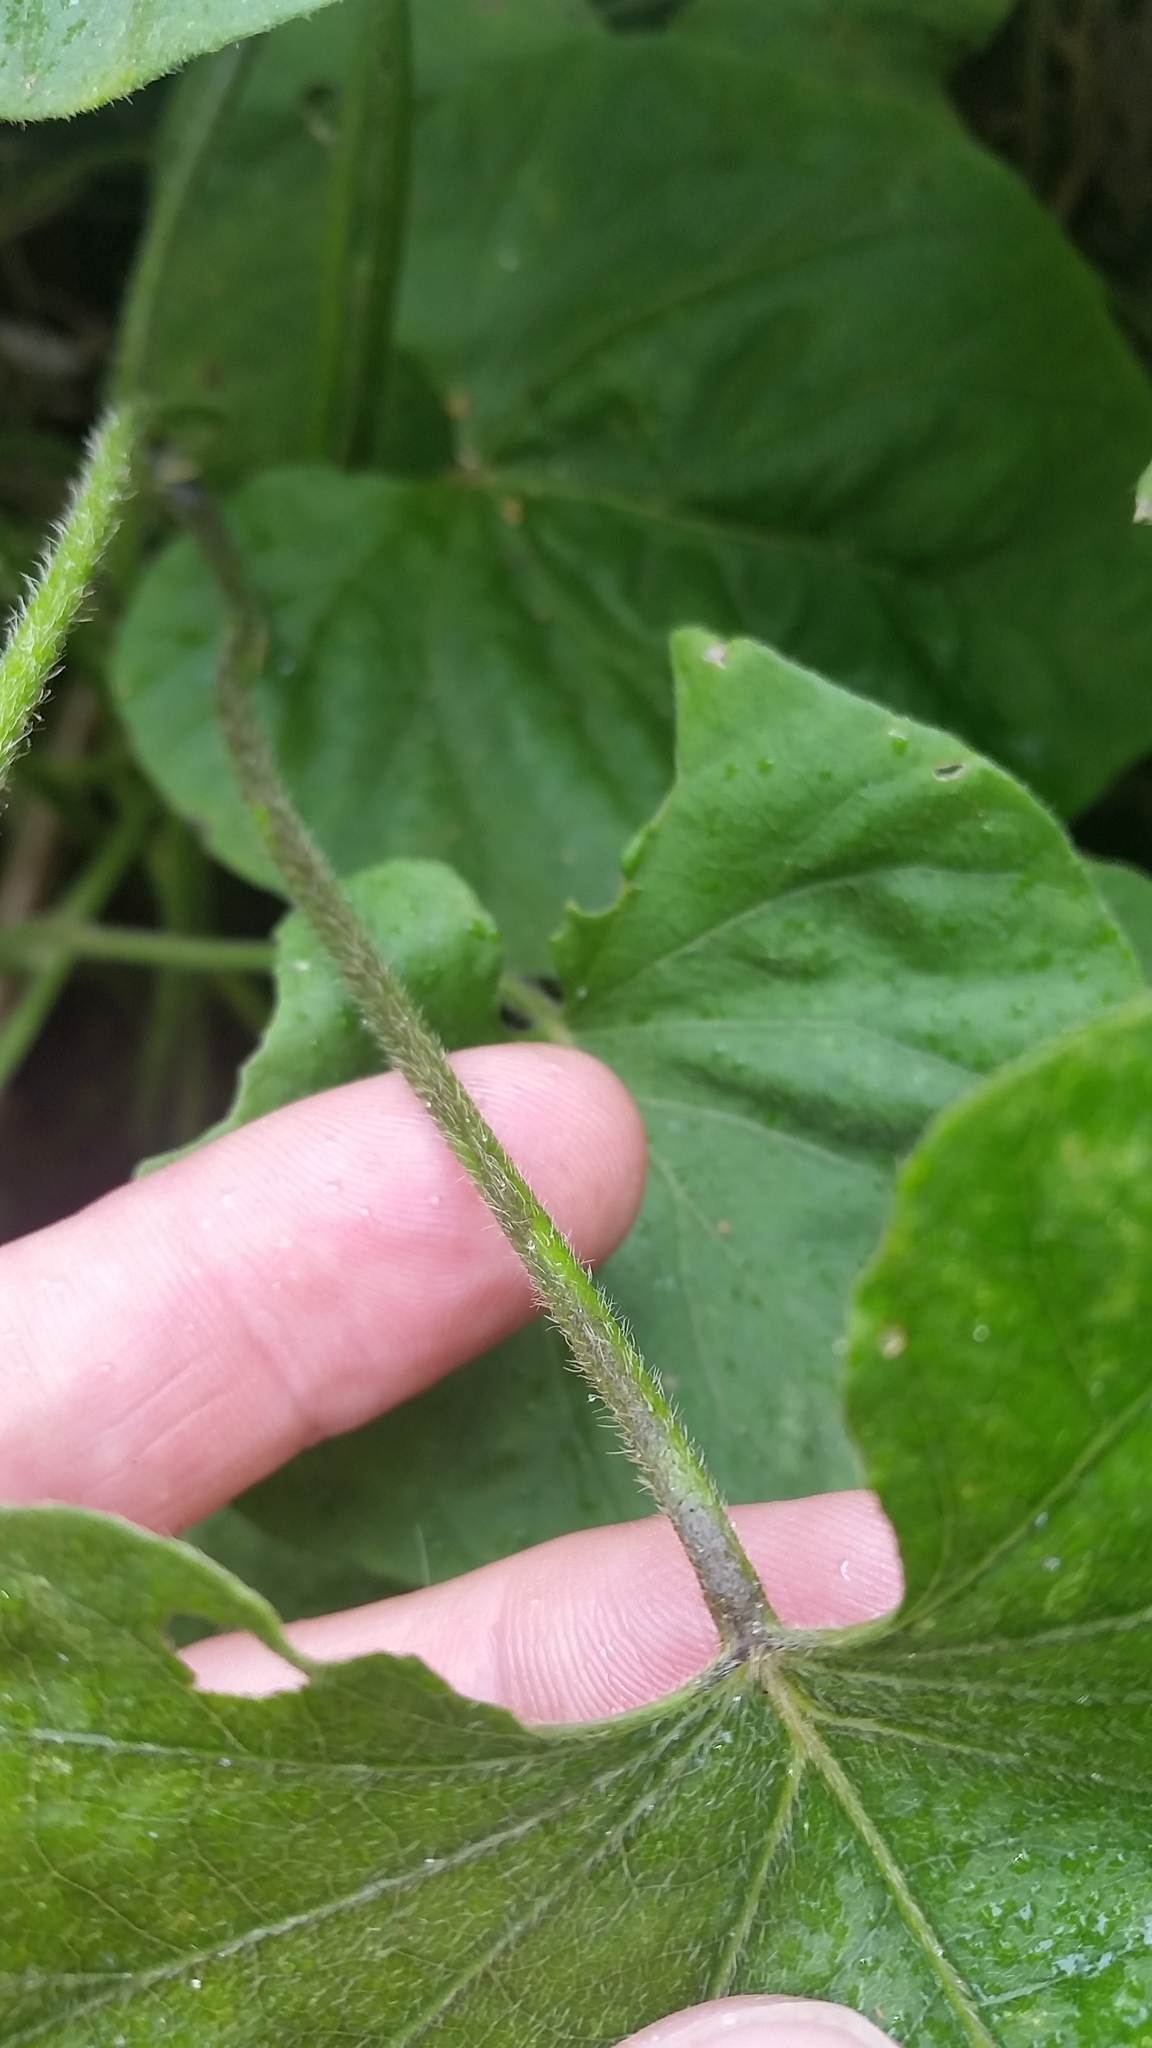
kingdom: Plantae
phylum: Tracheophyta
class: Magnoliopsida
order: Solanales
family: Convolvulaceae
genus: Ipomoea
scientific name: Ipomoea indica
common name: Blue dawnflower
